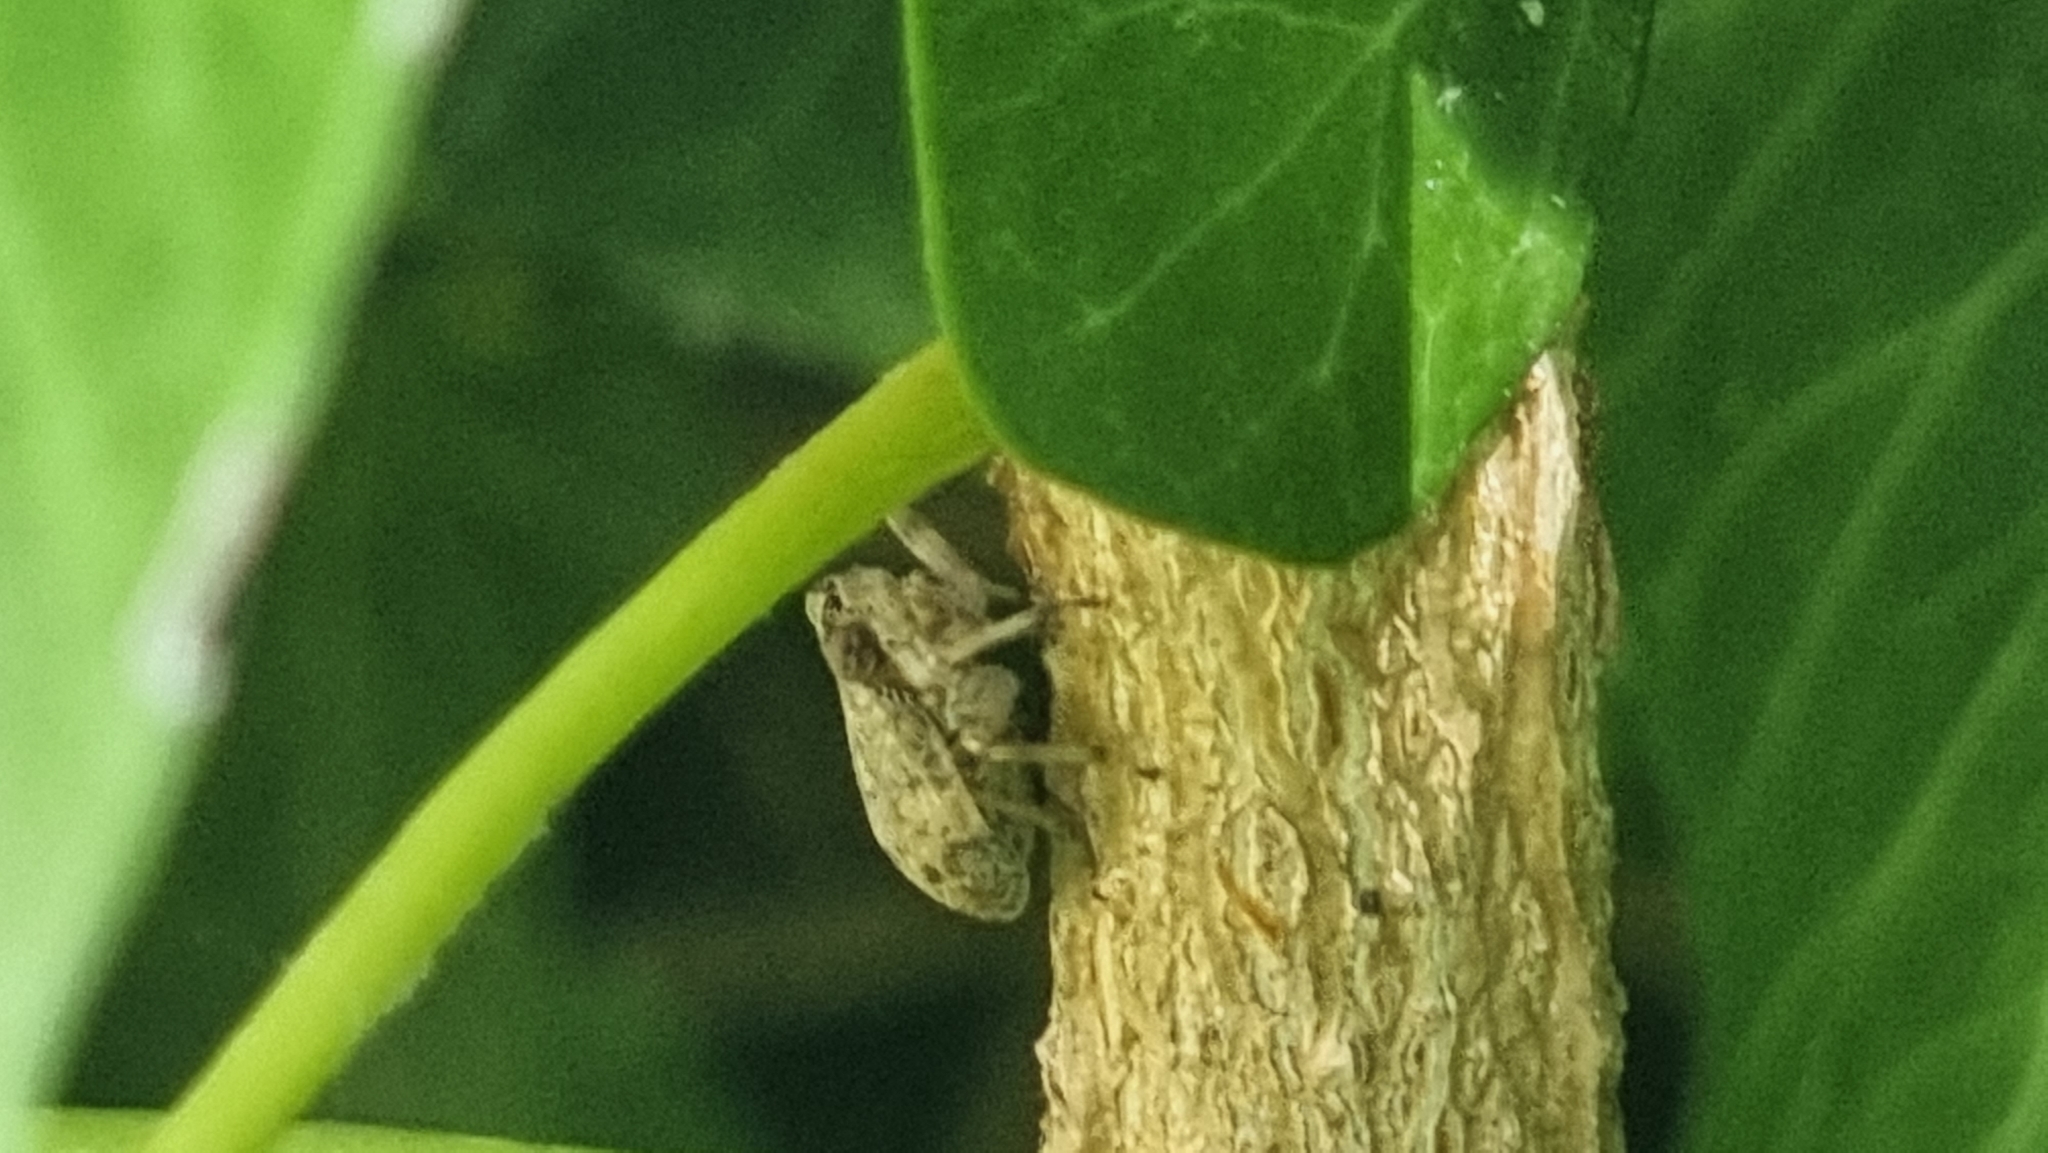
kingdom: Animalia
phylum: Arthropoda
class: Insecta
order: Hemiptera
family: Issidae
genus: Issus
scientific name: Issus coleoptratus
